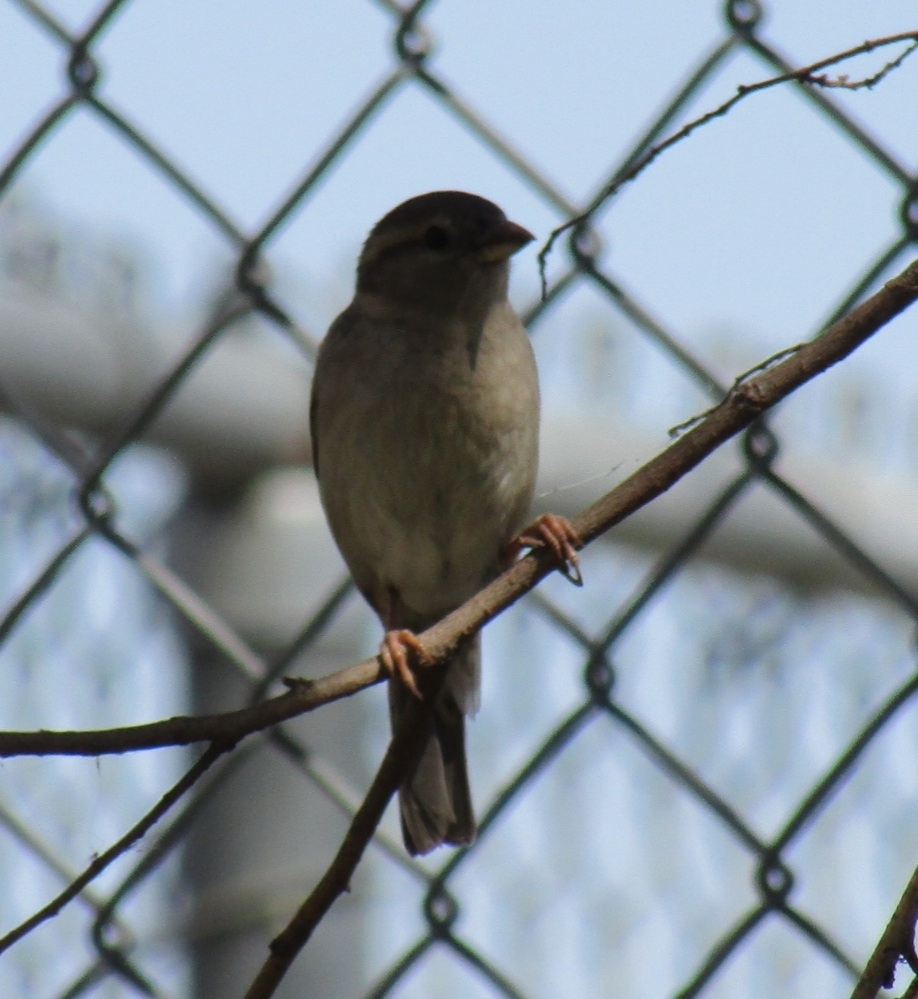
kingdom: Animalia
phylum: Chordata
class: Aves
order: Passeriformes
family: Passeridae
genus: Passer
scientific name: Passer domesticus
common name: House sparrow
